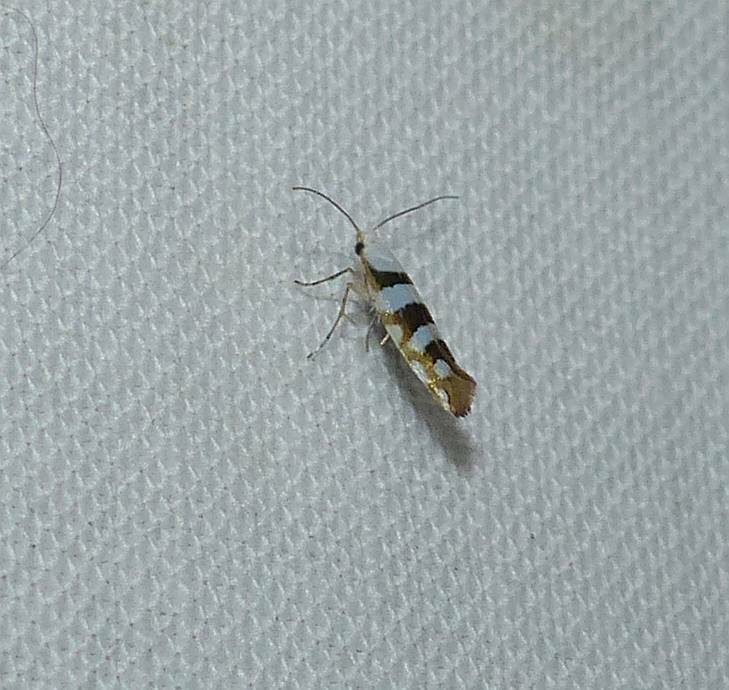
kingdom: Animalia
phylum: Arthropoda
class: Insecta
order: Lepidoptera
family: Argyresthiidae
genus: Argyresthia
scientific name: Argyresthia calliphanes
